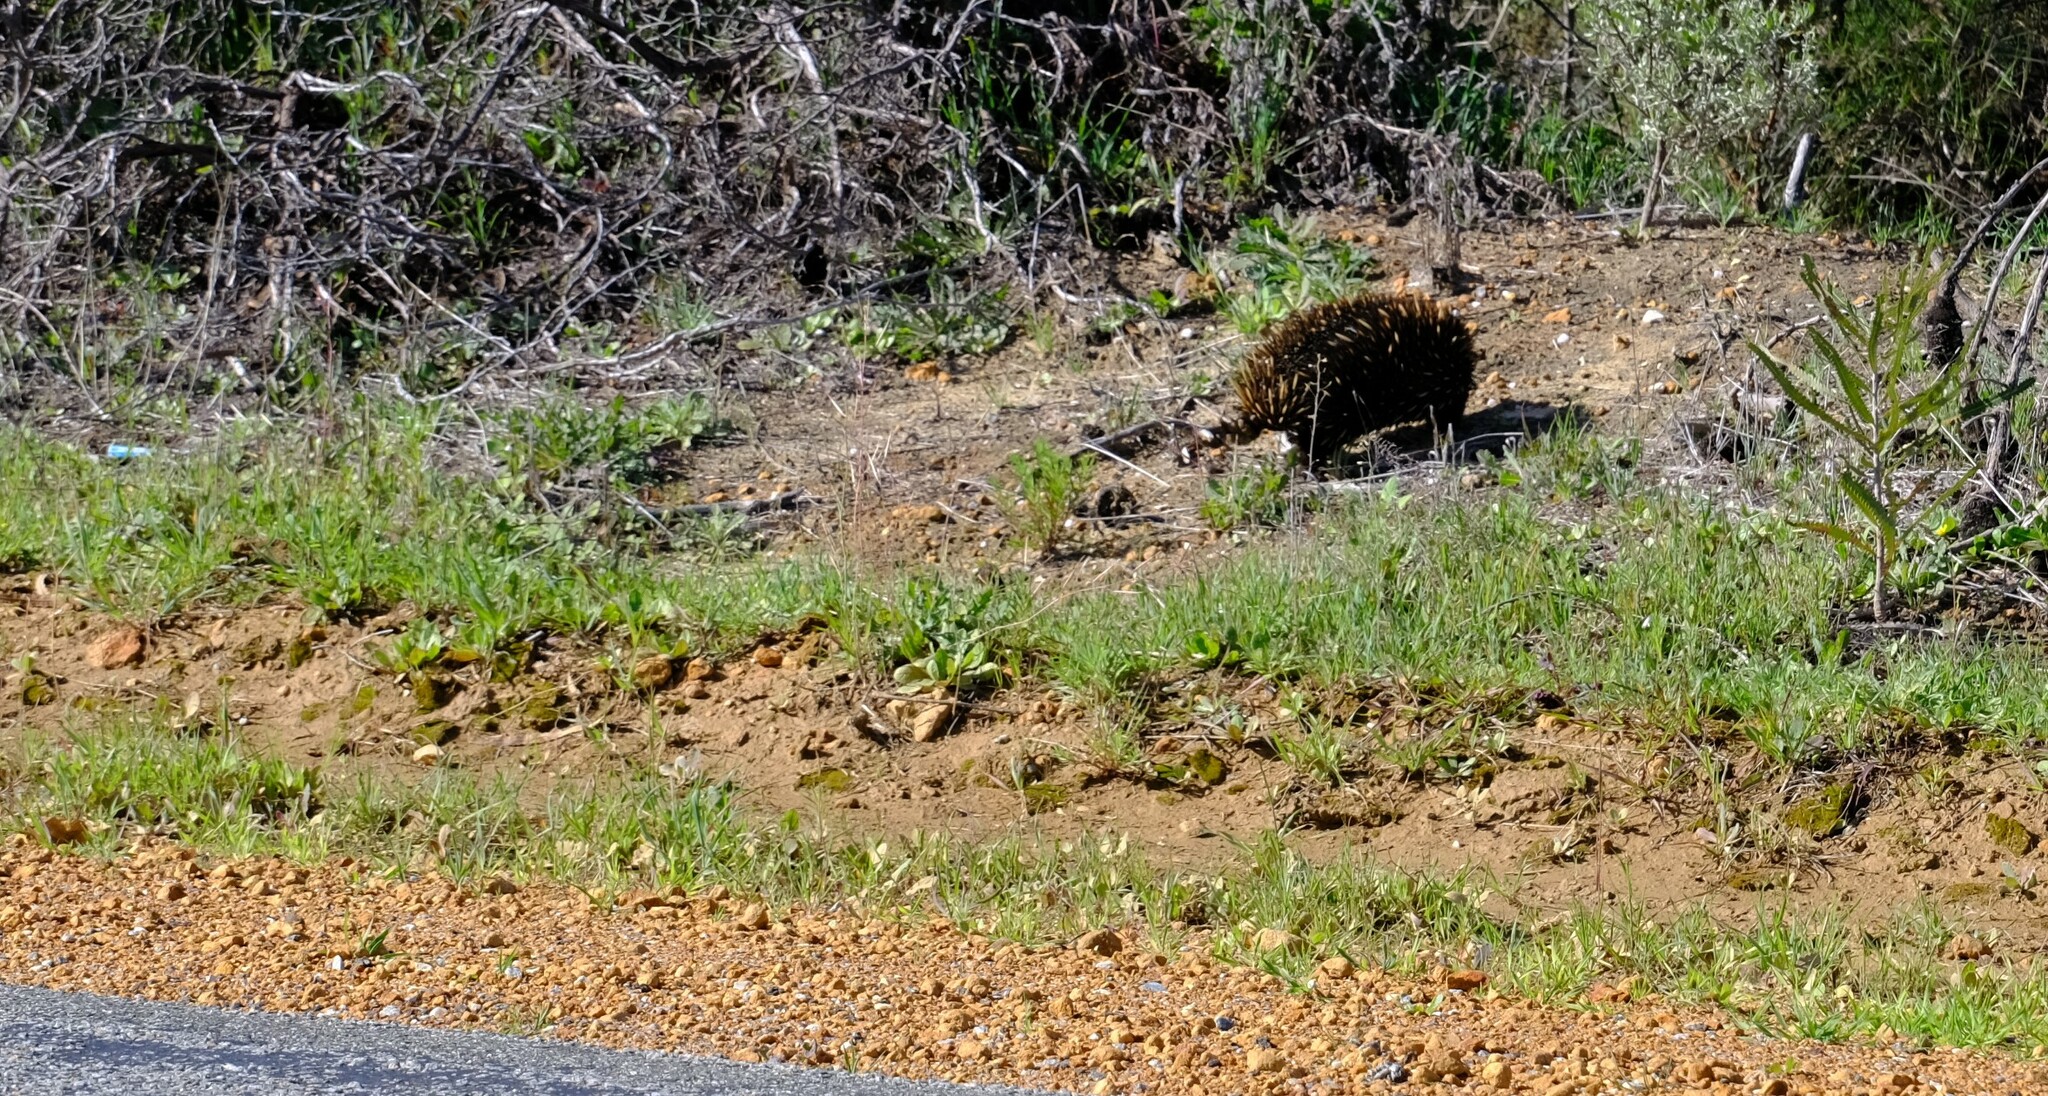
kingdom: Animalia
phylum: Chordata
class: Mammalia
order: Monotremata
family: Tachyglossidae
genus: Tachyglossus
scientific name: Tachyglossus aculeatus
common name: Short-beaked echidna
